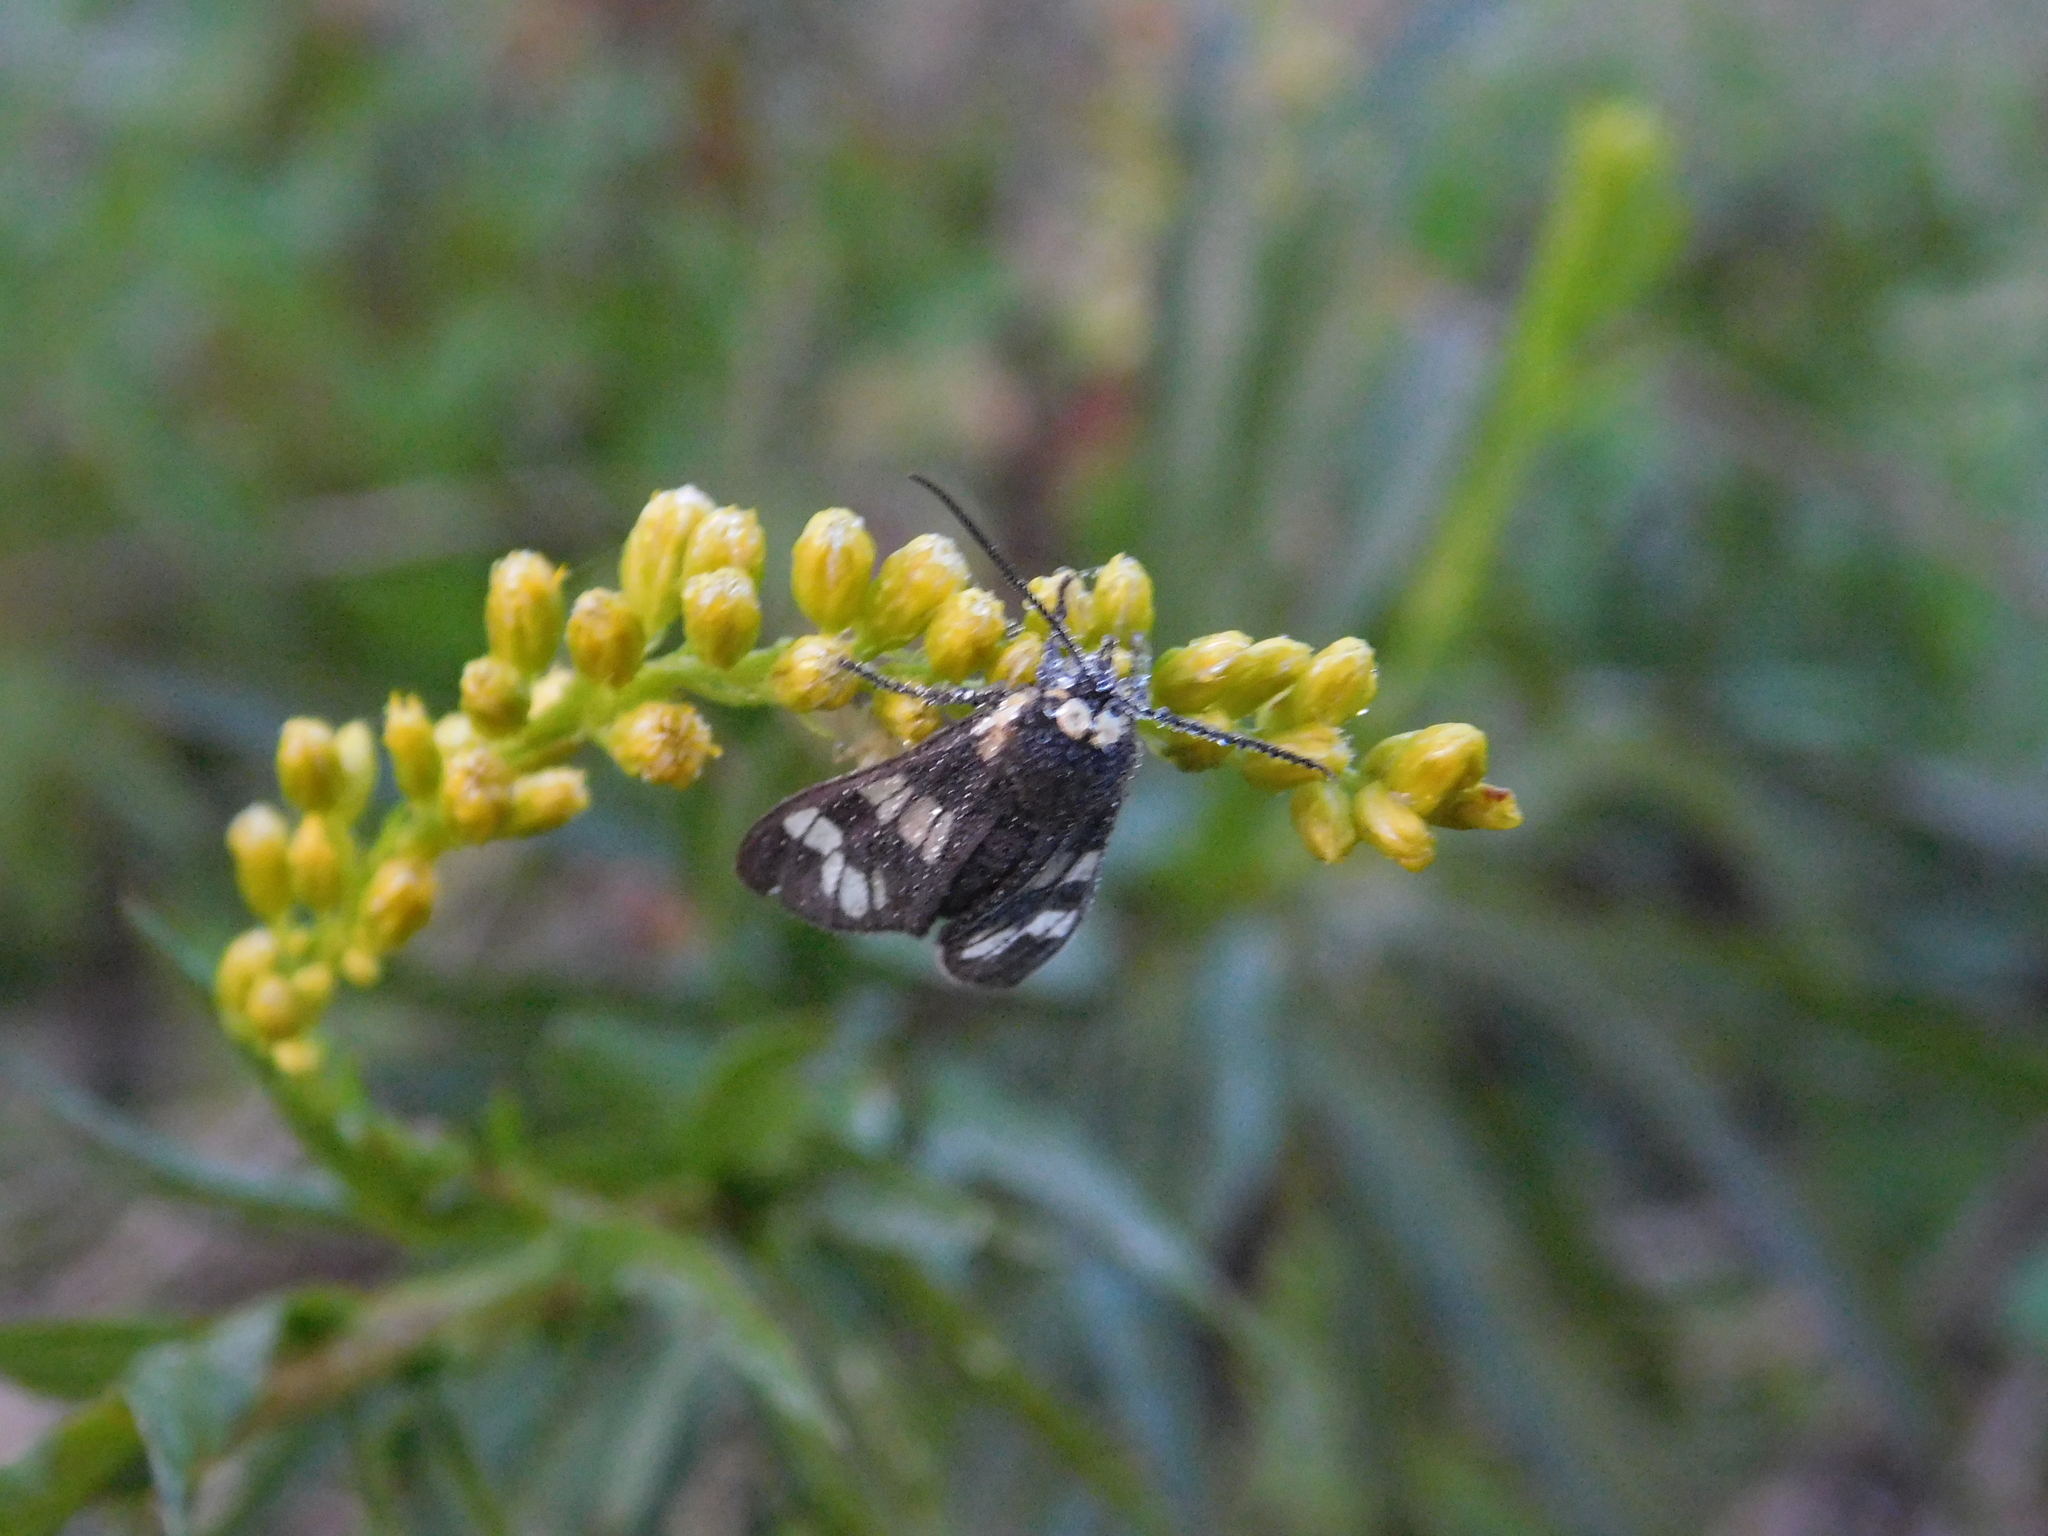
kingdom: Animalia
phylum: Arthropoda
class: Insecta
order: Lepidoptera
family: Erebidae
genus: Eurata
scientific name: Eurata
